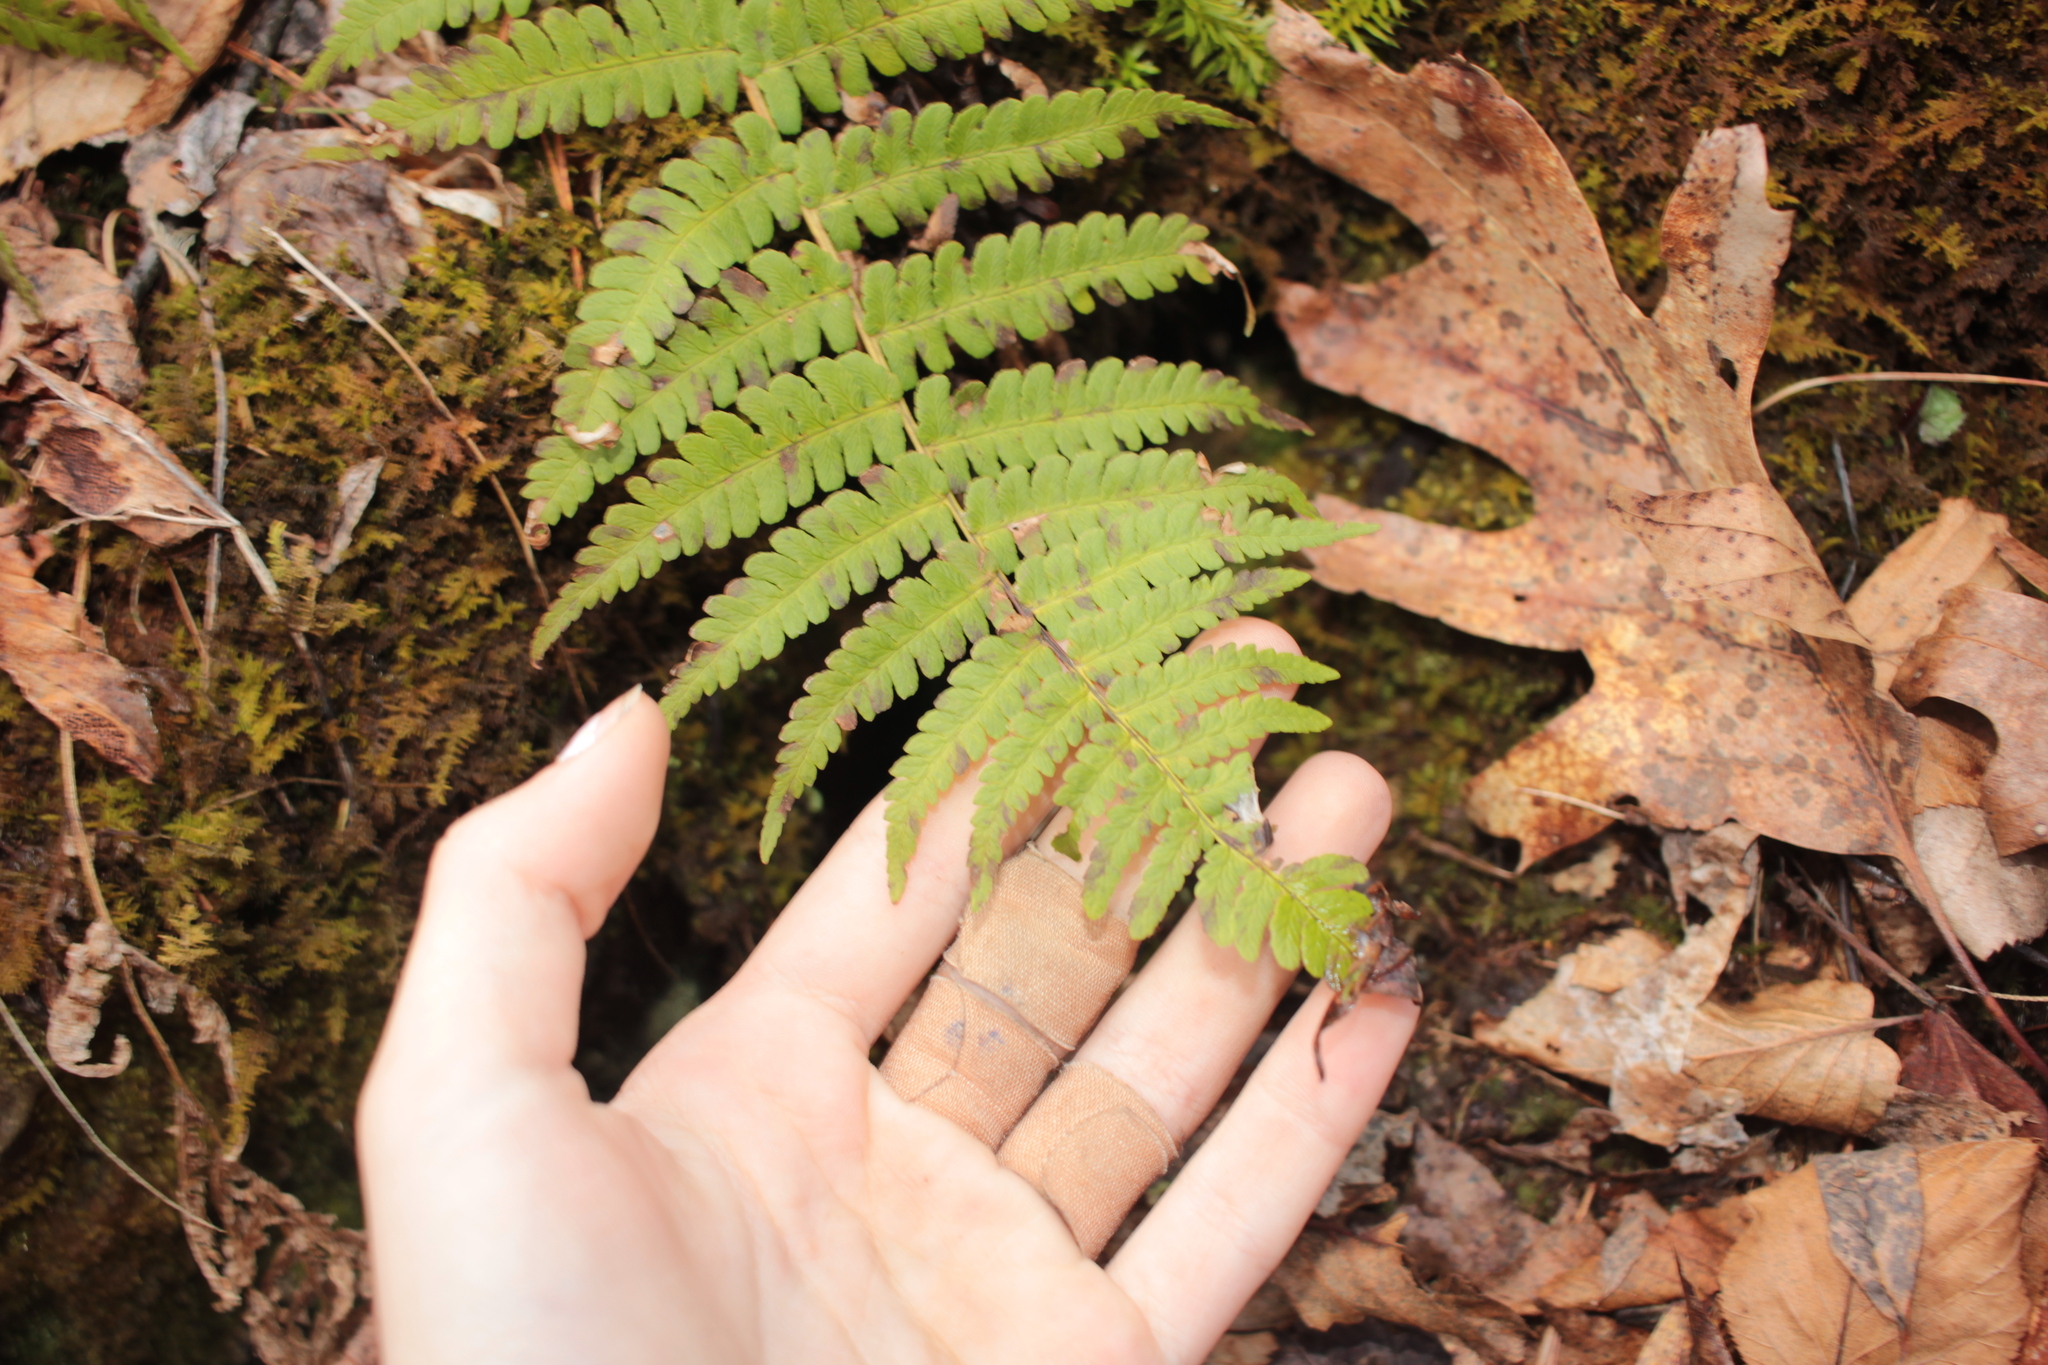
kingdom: Plantae
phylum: Tracheophyta
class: Polypodiopsida
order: Polypodiales
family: Dryopteridaceae
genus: Dryopteris
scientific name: Dryopteris marginalis
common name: Marginal wood fern
